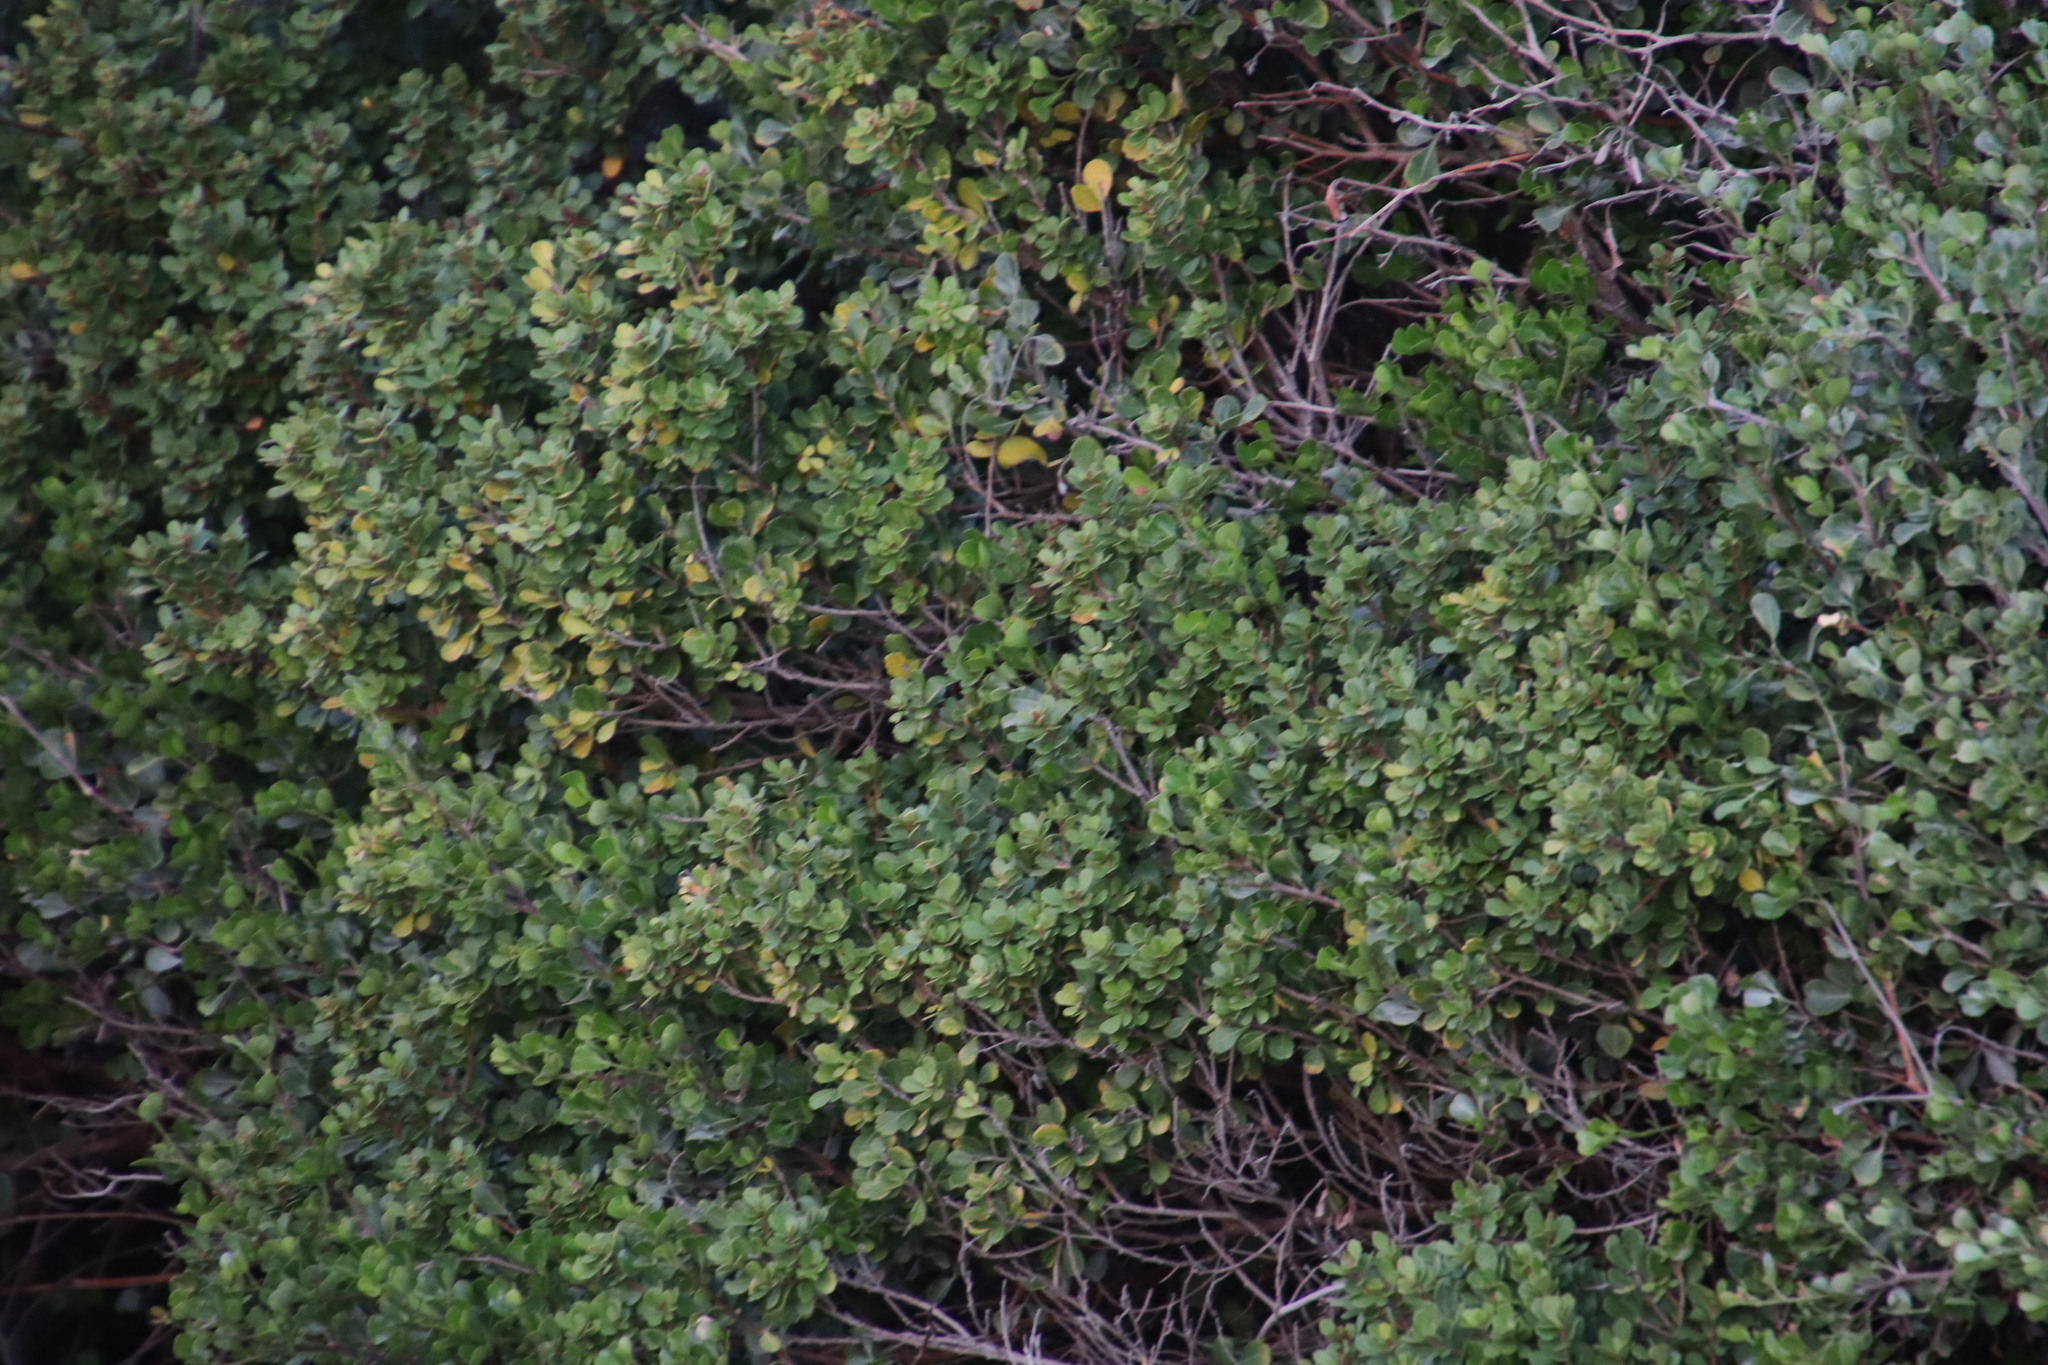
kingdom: Plantae
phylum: Tracheophyta
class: Magnoliopsida
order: Sapindales
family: Anacardiaceae
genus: Searsia
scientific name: Searsia glauca
